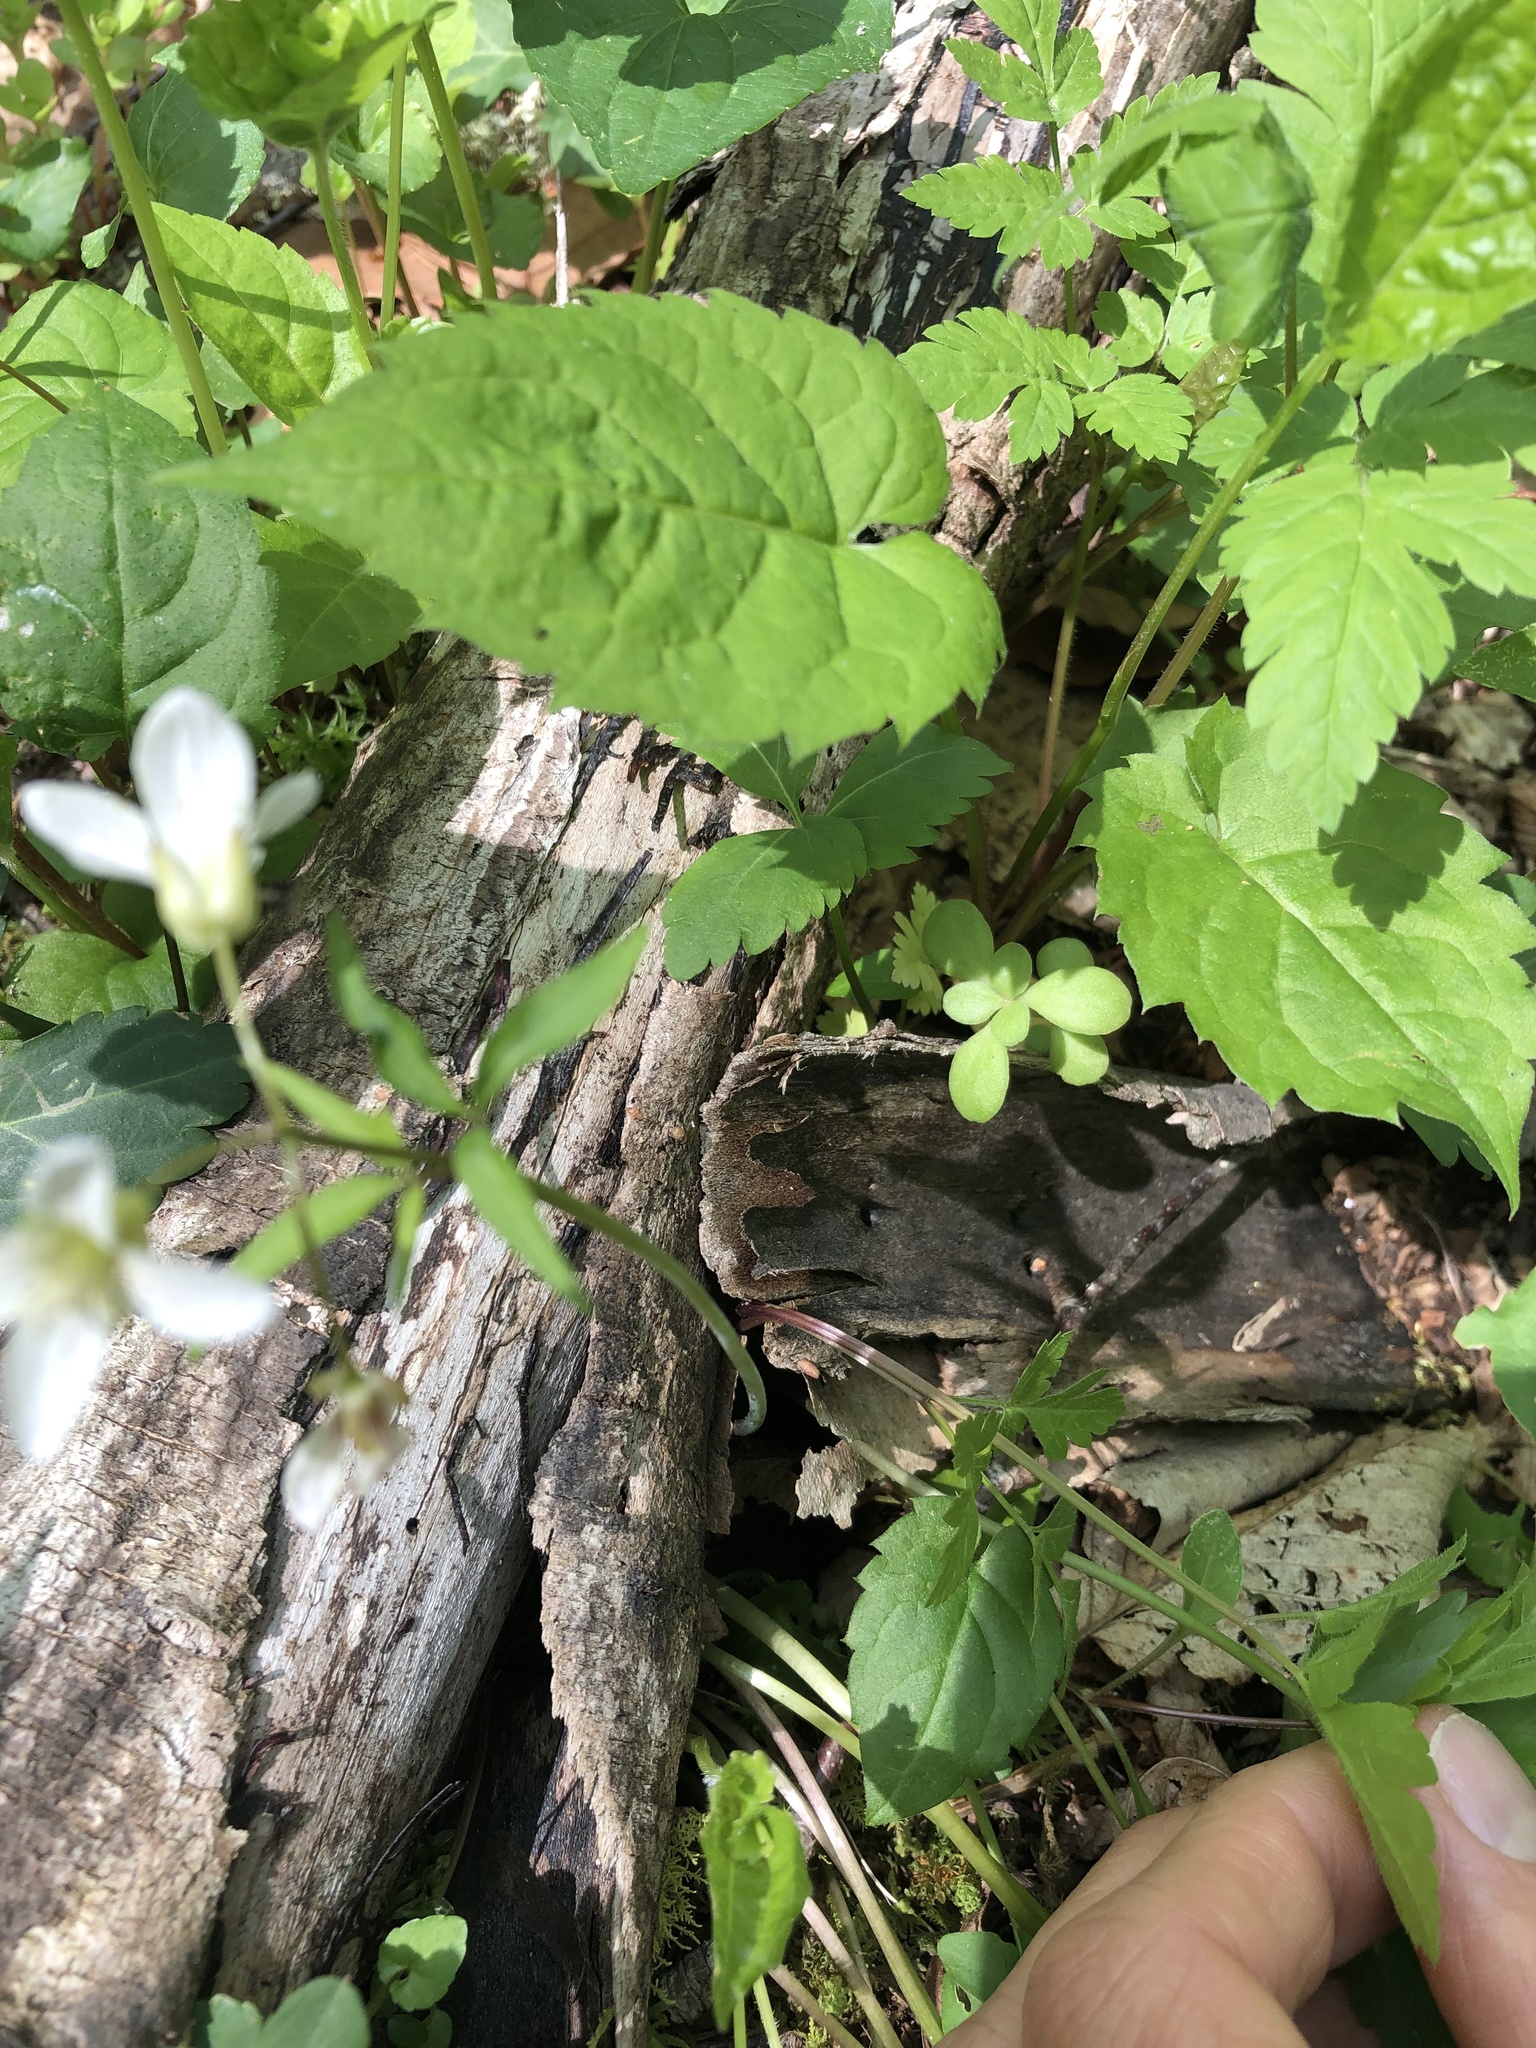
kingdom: Plantae
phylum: Tracheophyta
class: Magnoliopsida
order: Brassicales
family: Brassicaceae
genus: Cardamine
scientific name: Cardamine angustata
